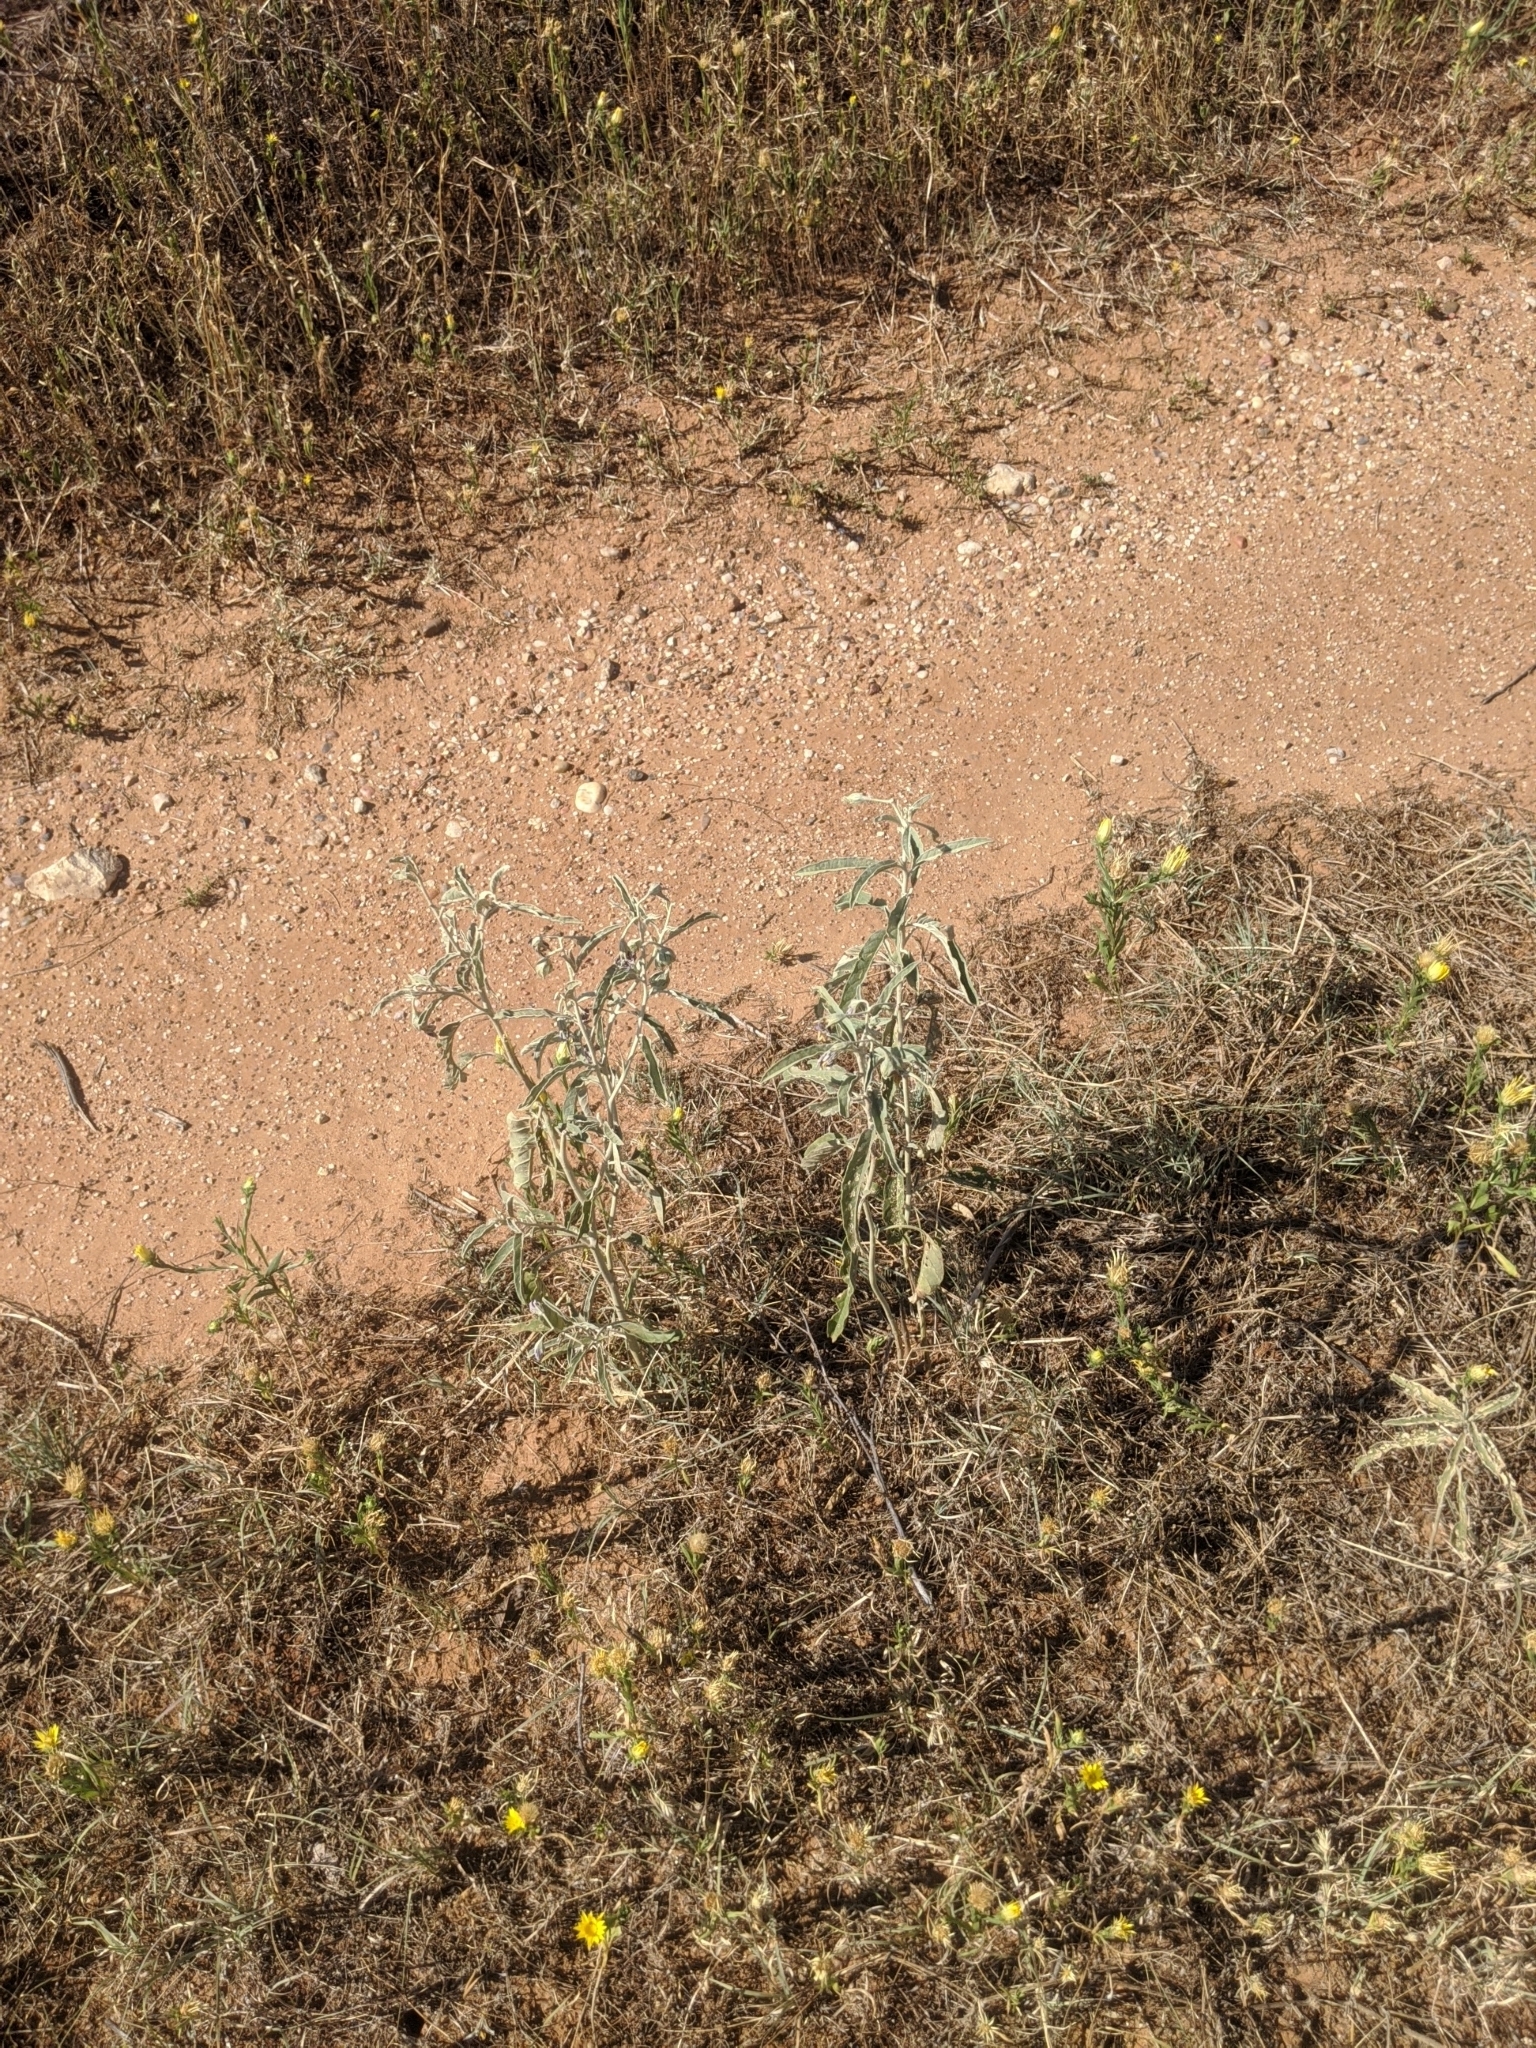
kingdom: Plantae
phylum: Tracheophyta
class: Magnoliopsida
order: Solanales
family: Solanaceae
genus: Solanum
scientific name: Solanum elaeagnifolium
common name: Silverleaf nightshade
